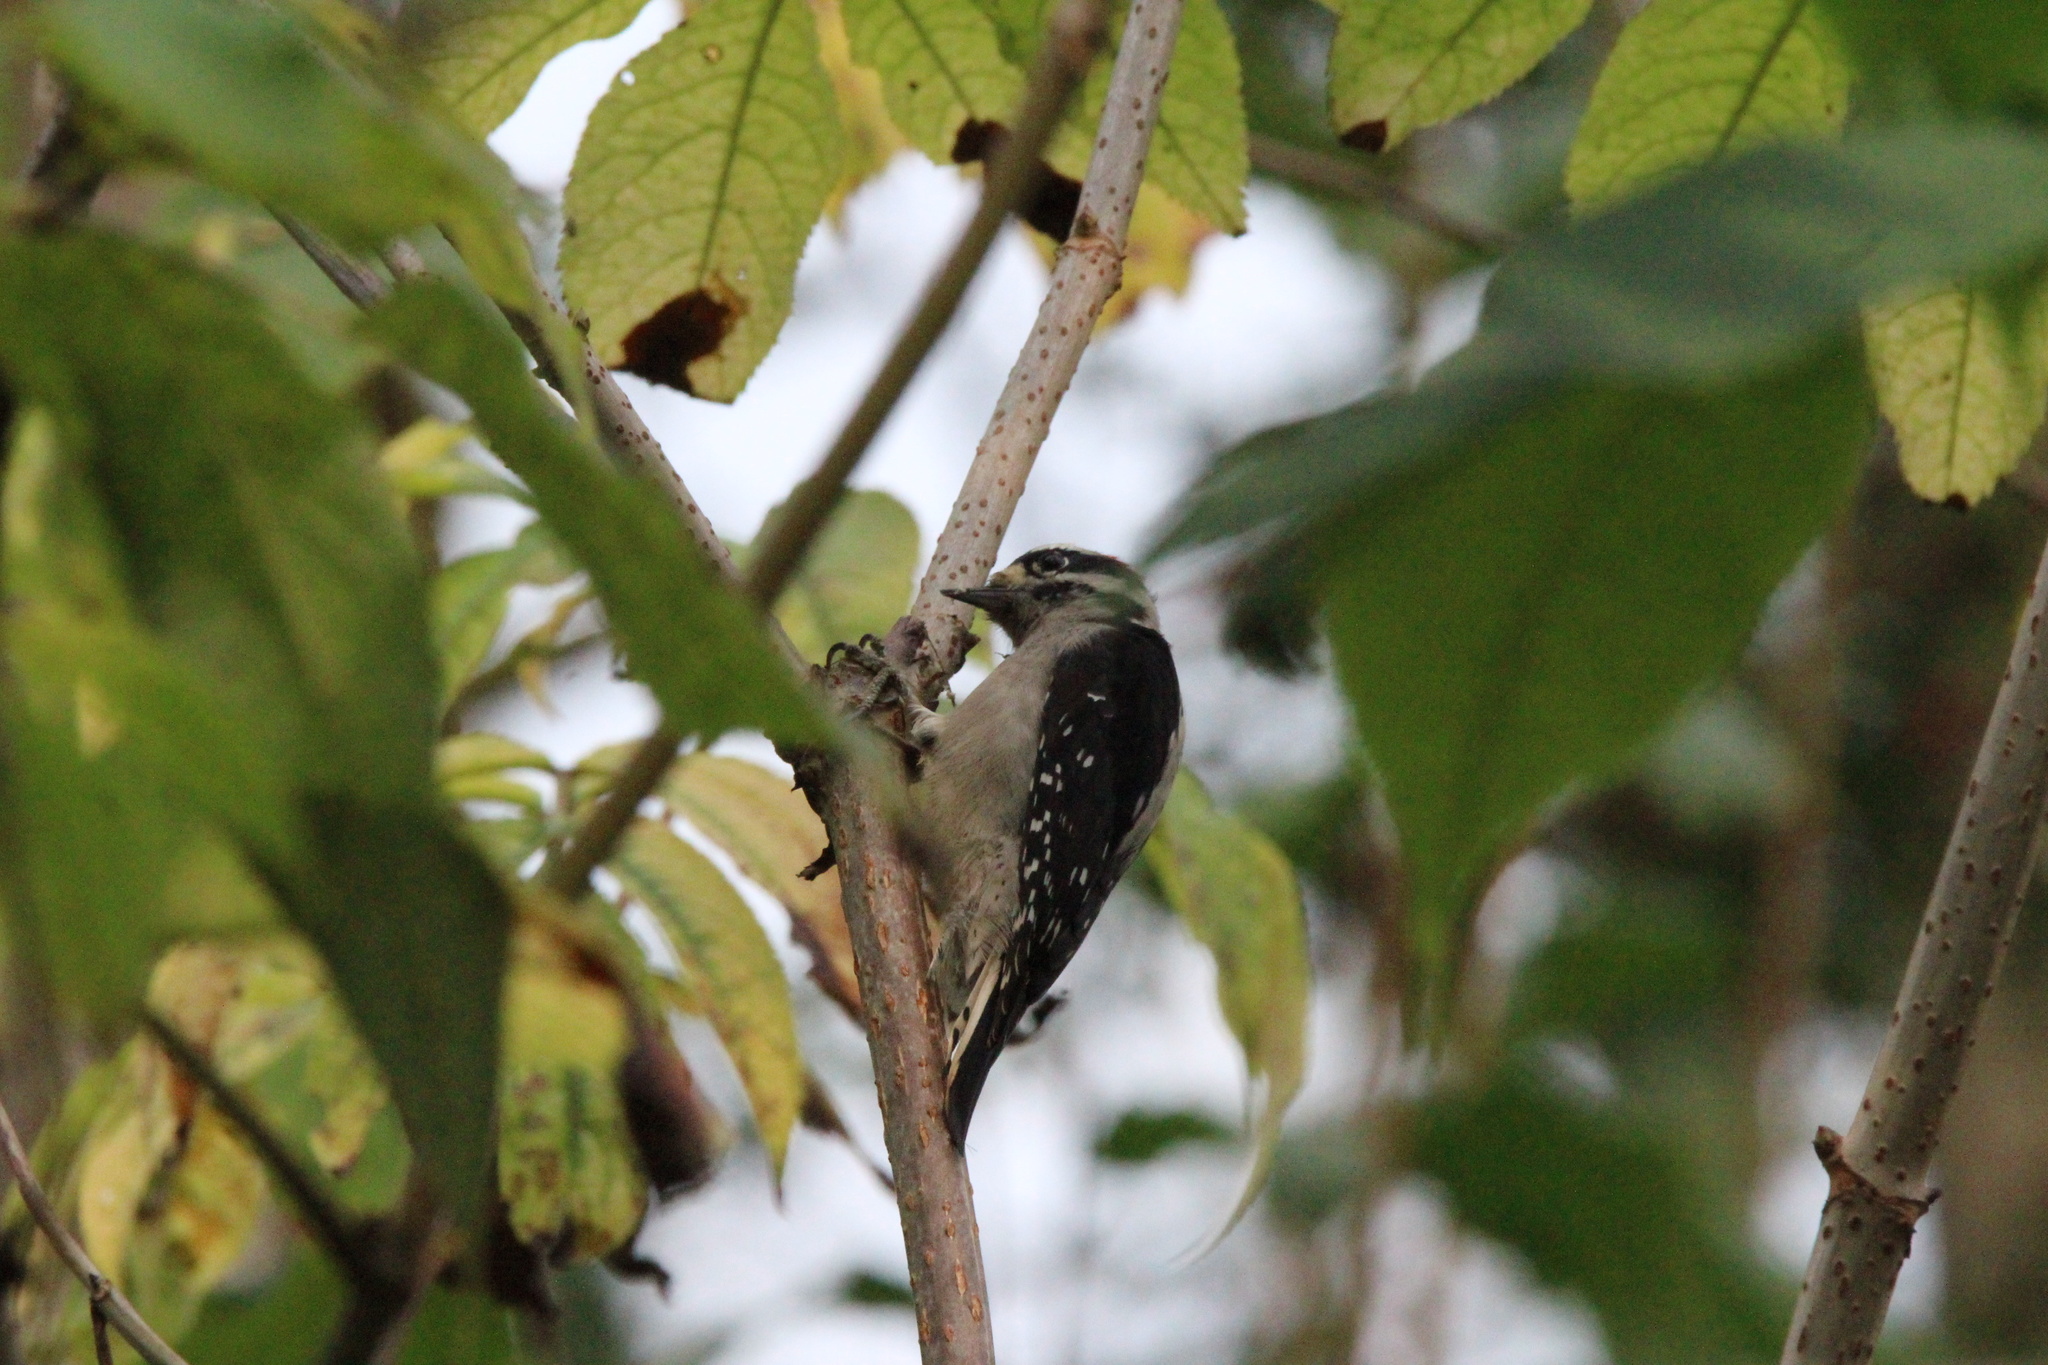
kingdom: Animalia
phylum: Chordata
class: Aves
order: Piciformes
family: Picidae
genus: Dryobates
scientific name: Dryobates pubescens
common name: Downy woodpecker
